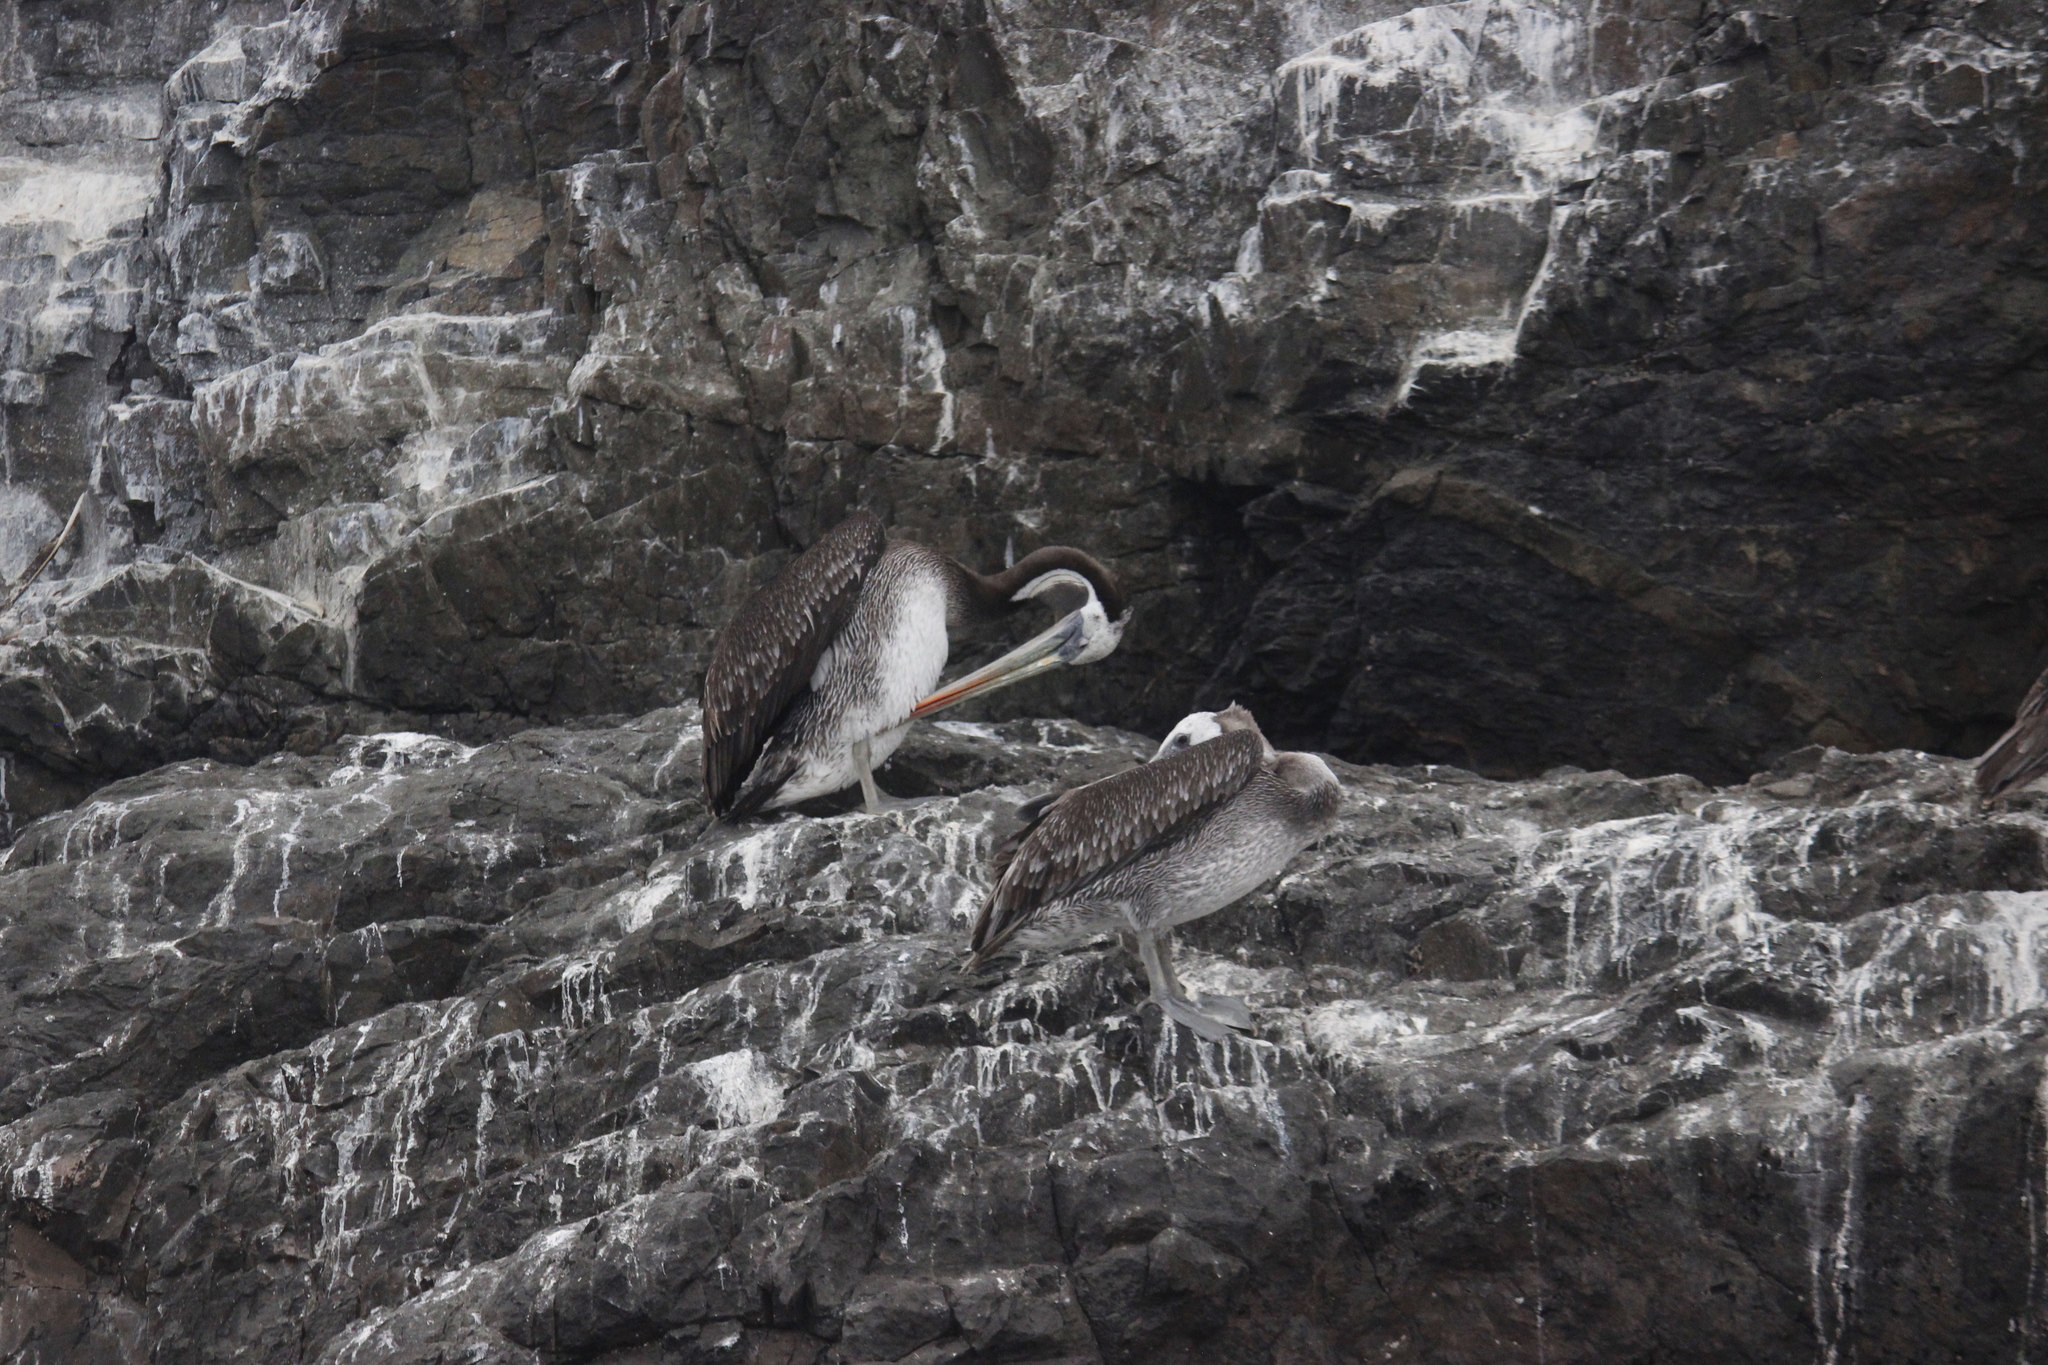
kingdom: Animalia
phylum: Chordata
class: Aves
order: Pelecaniformes
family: Pelecanidae
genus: Pelecanus
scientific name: Pelecanus thagus
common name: Peruvian pelican
